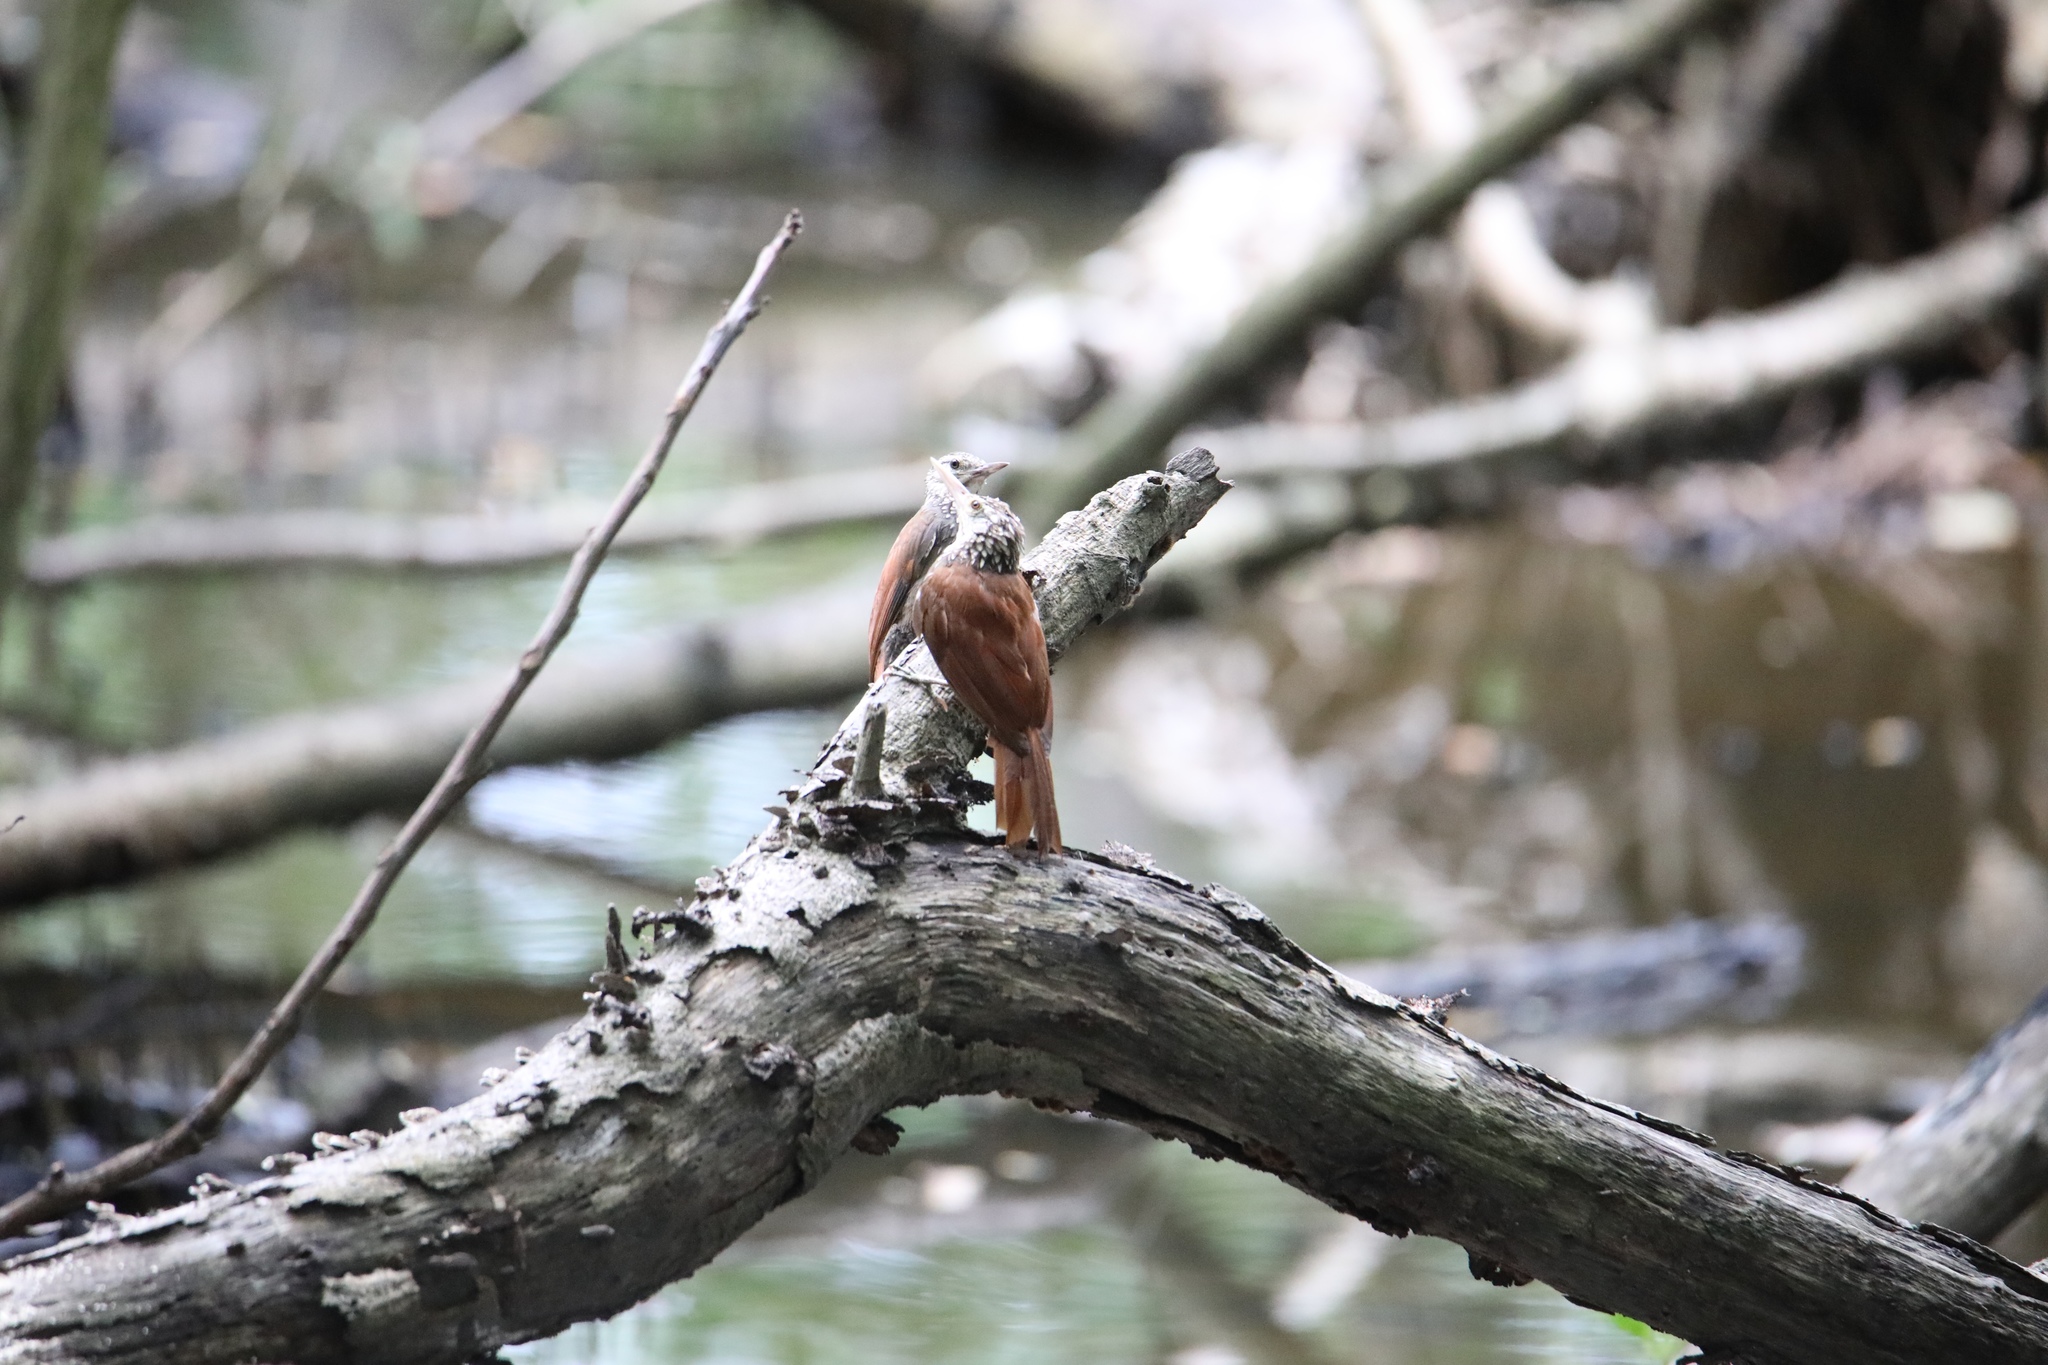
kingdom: Animalia
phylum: Chordata
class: Aves
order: Passeriformes
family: Furnariidae
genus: Xiphorhynchus
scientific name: Xiphorhynchus picus
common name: Straight-billed woodcreeper
